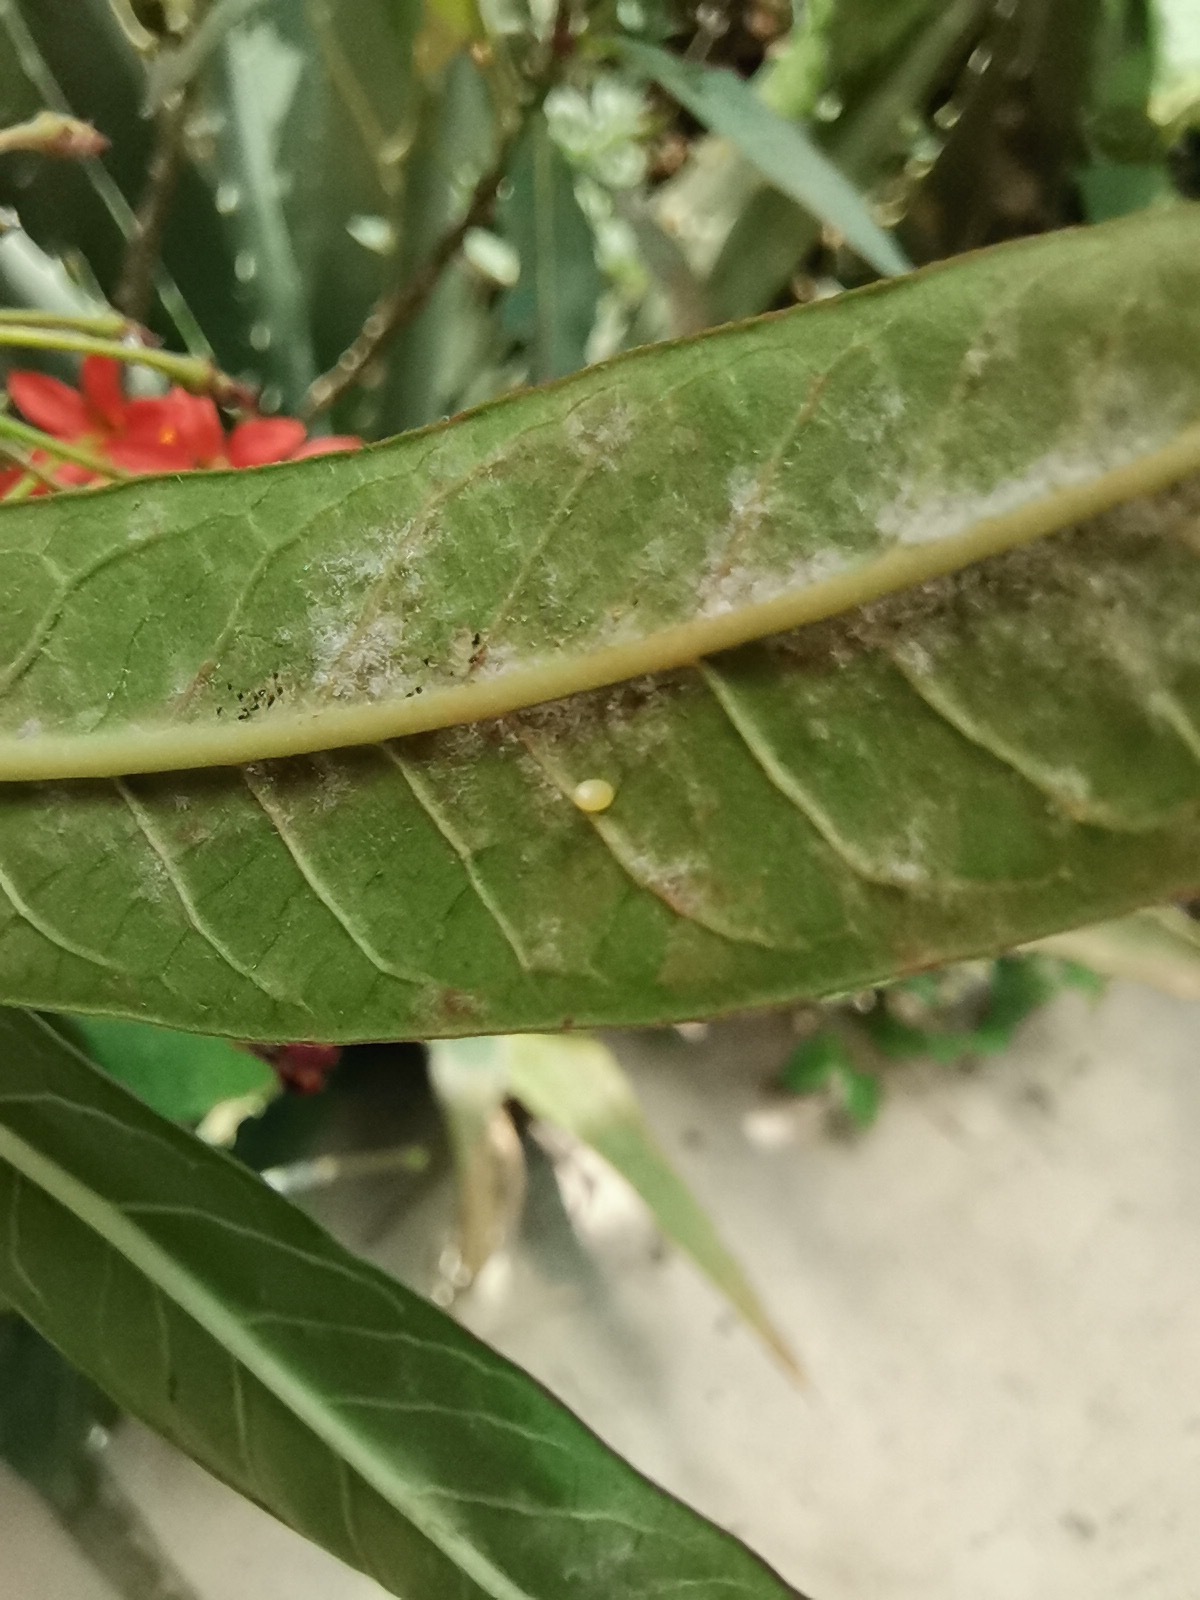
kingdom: Animalia
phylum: Arthropoda
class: Insecta
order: Lepidoptera
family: Nymphalidae
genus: Danaus
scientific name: Danaus plexippus
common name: Monarch
